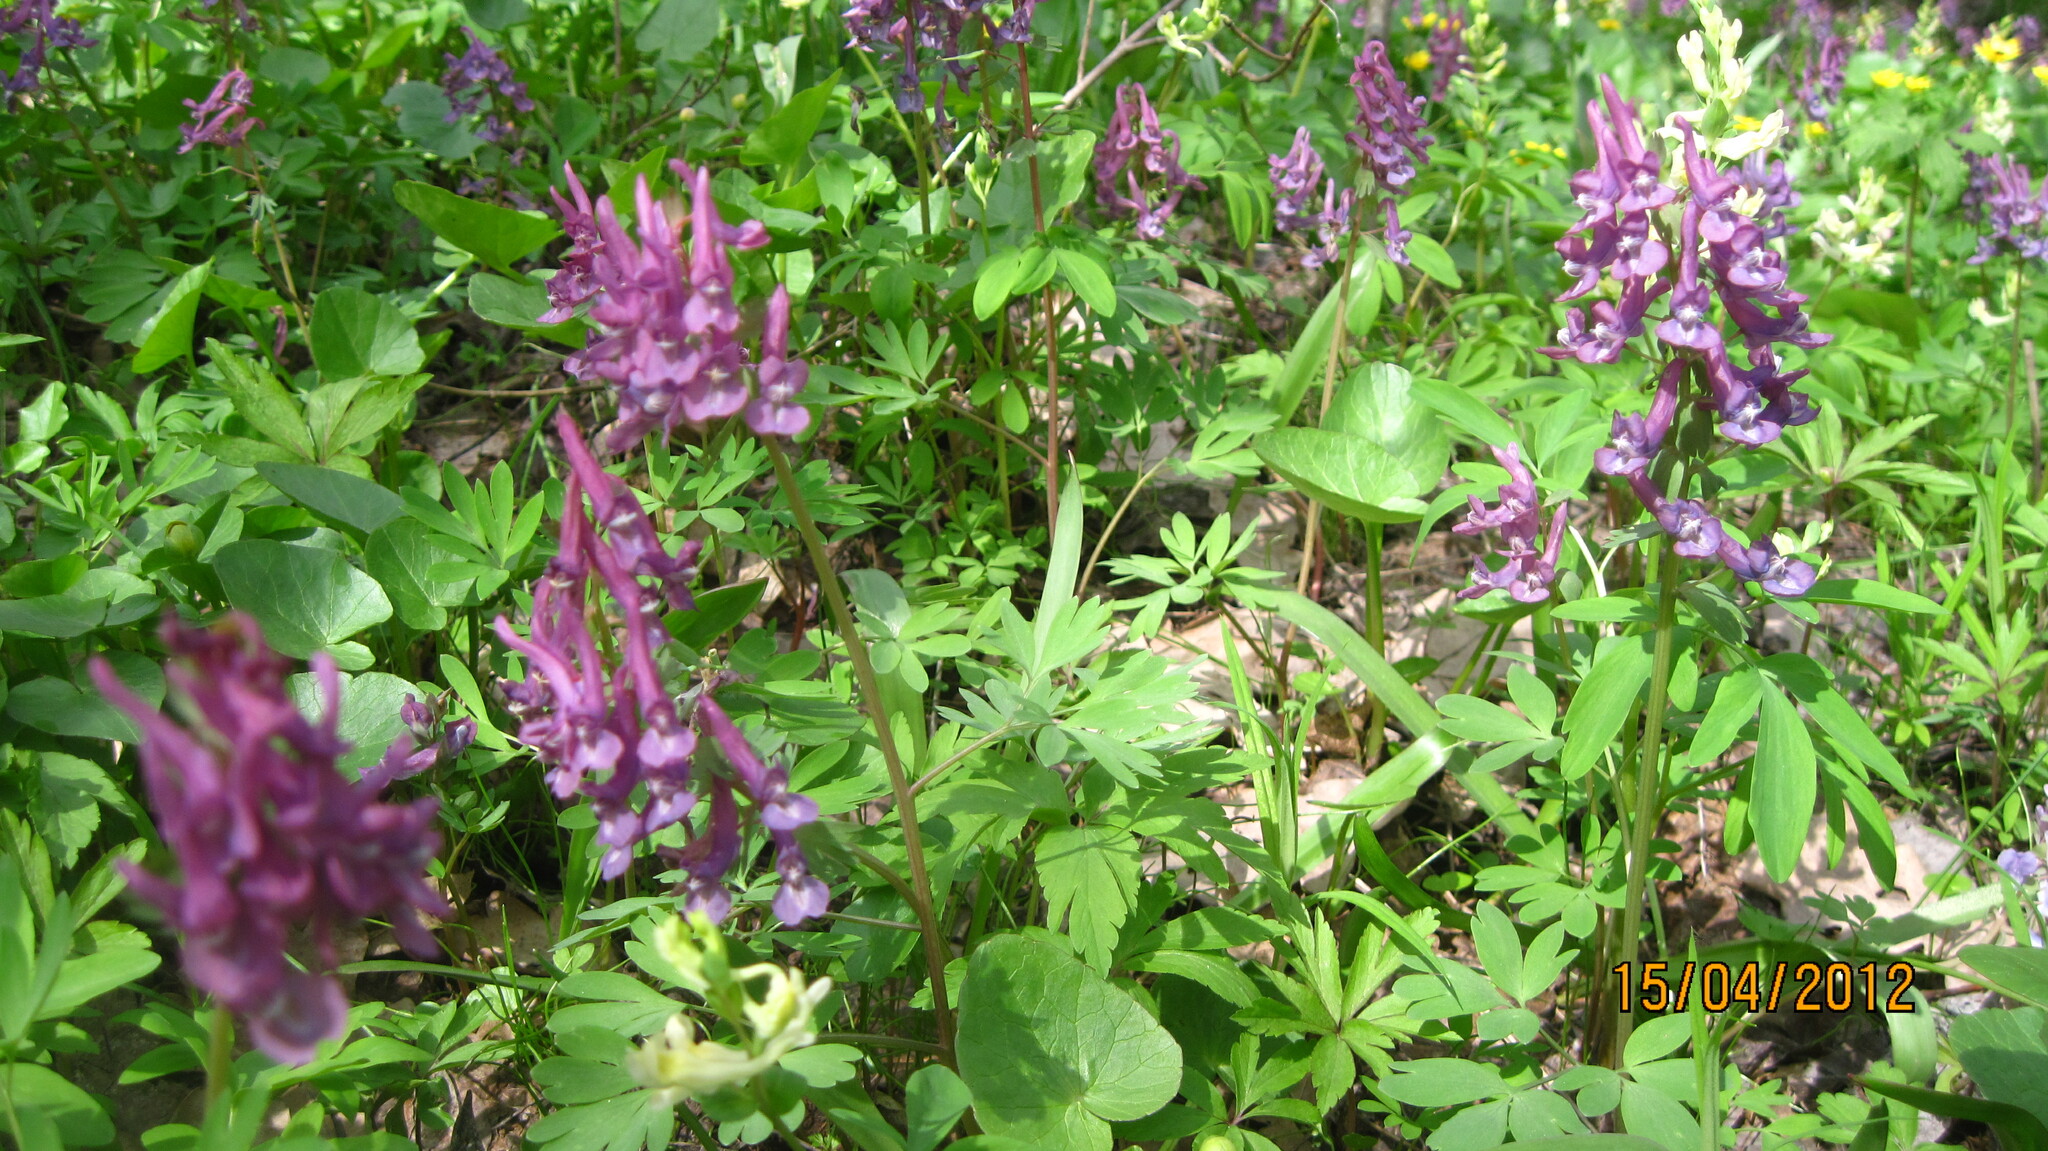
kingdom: Plantae
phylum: Tracheophyta
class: Magnoliopsida
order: Ranunculales
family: Papaveraceae
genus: Corydalis
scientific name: Corydalis solida
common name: Bird-in-a-bush
